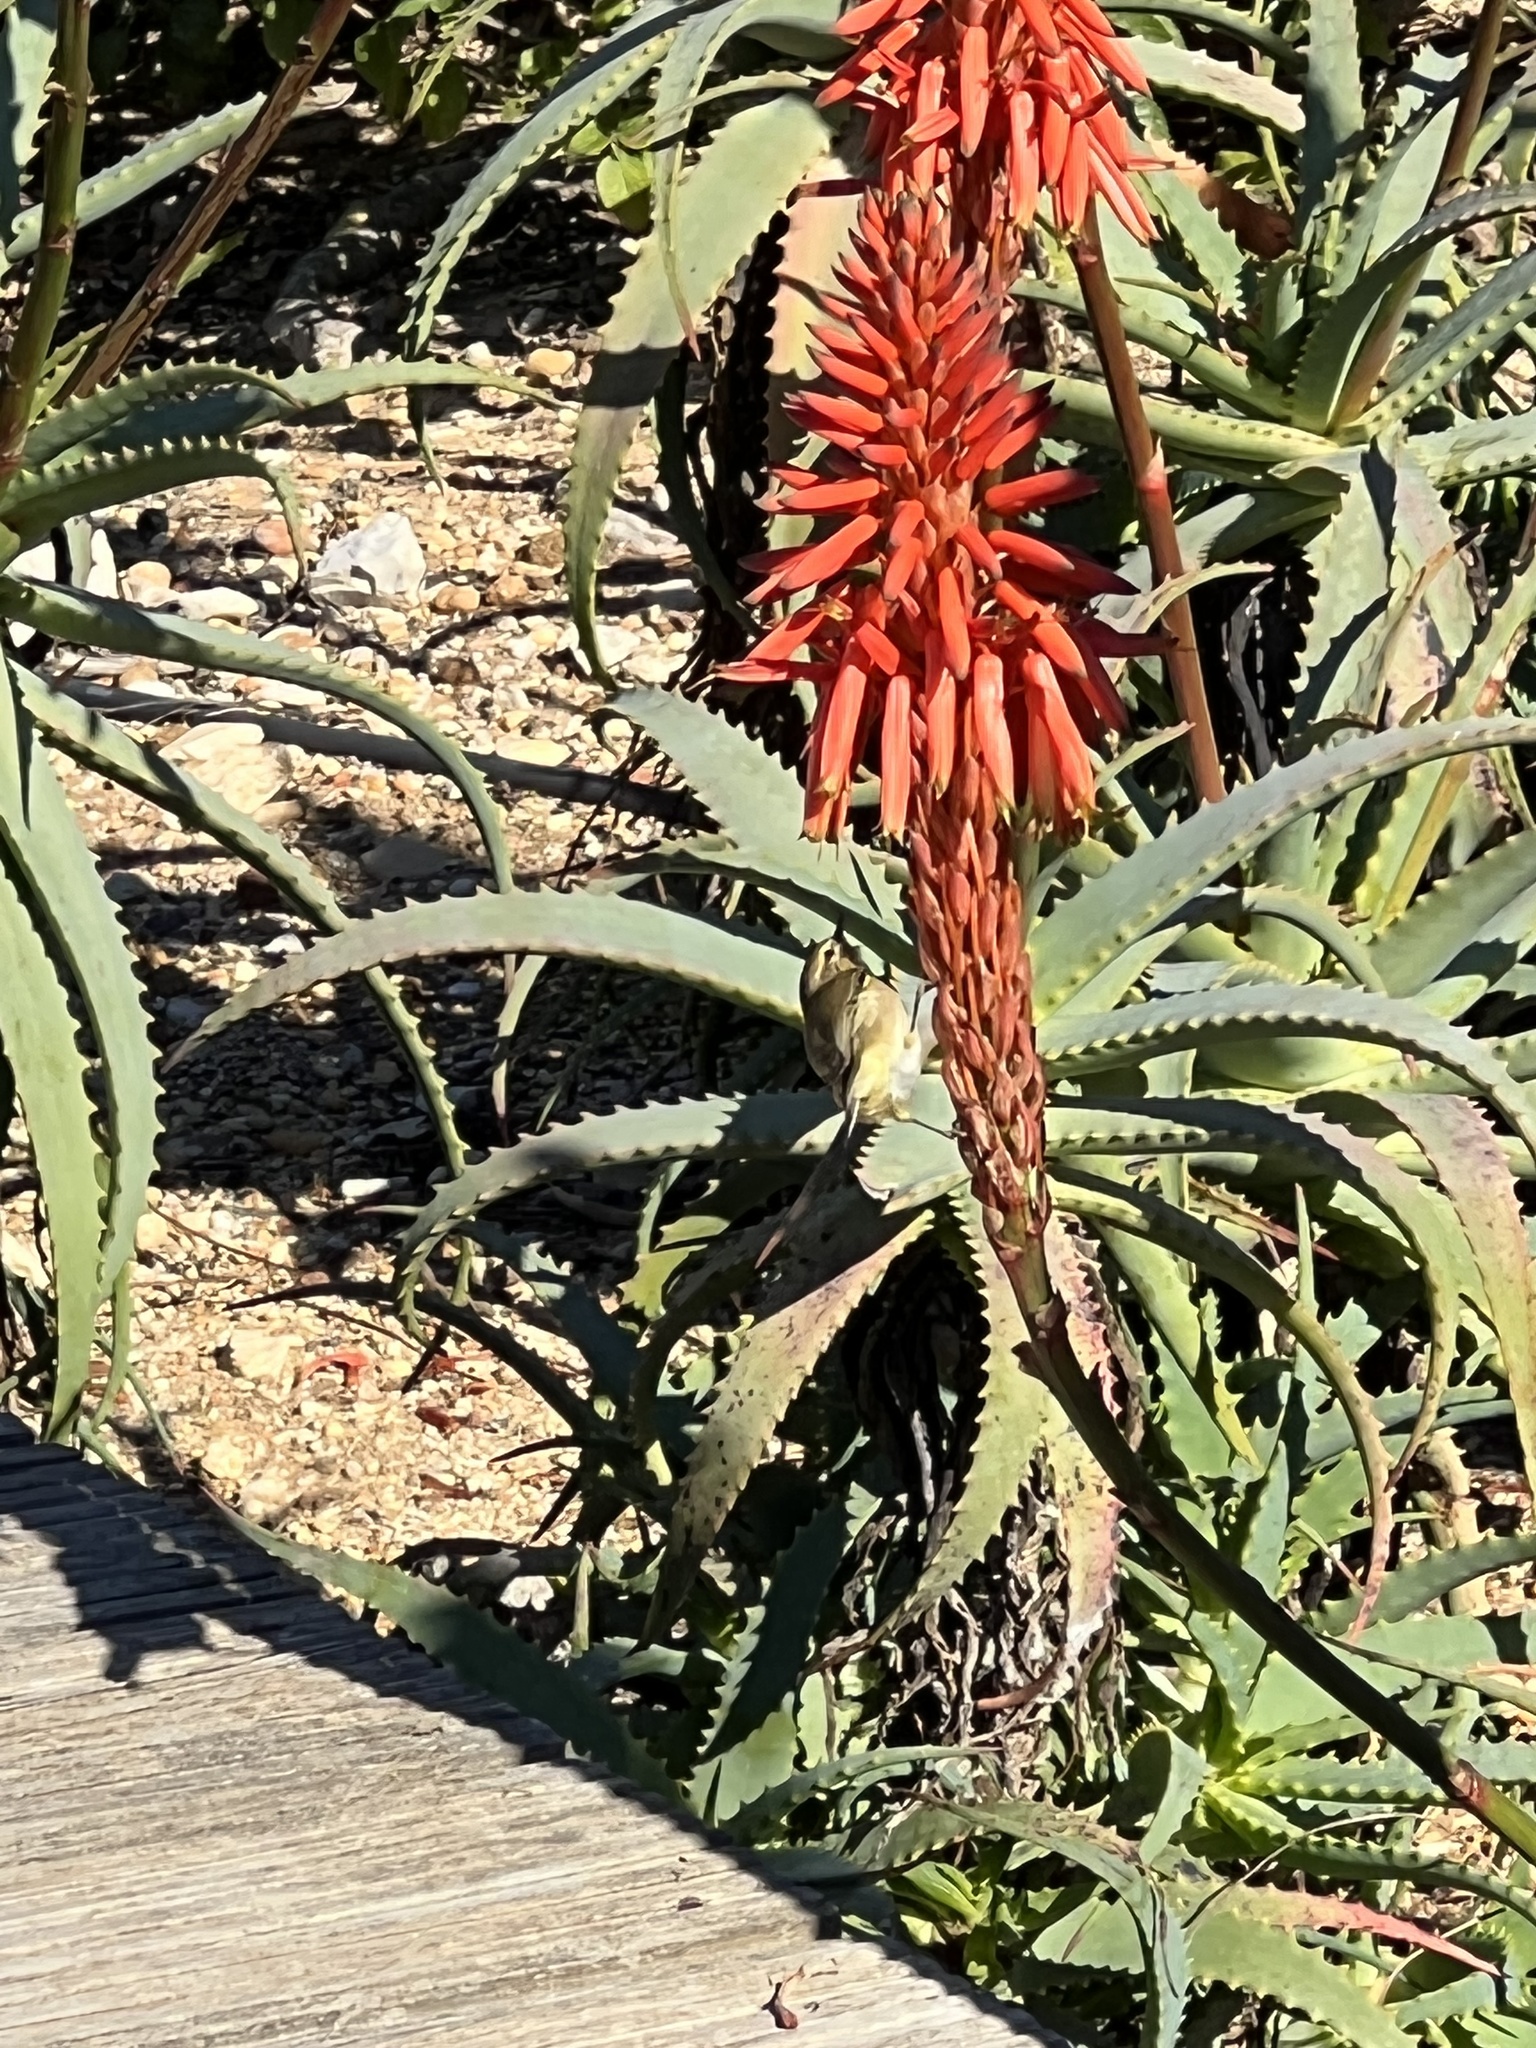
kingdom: Plantae
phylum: Tracheophyta
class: Liliopsida
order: Asparagales
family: Asphodelaceae
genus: Aloe
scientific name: Aloe arborescens
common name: Candelabra aloe
